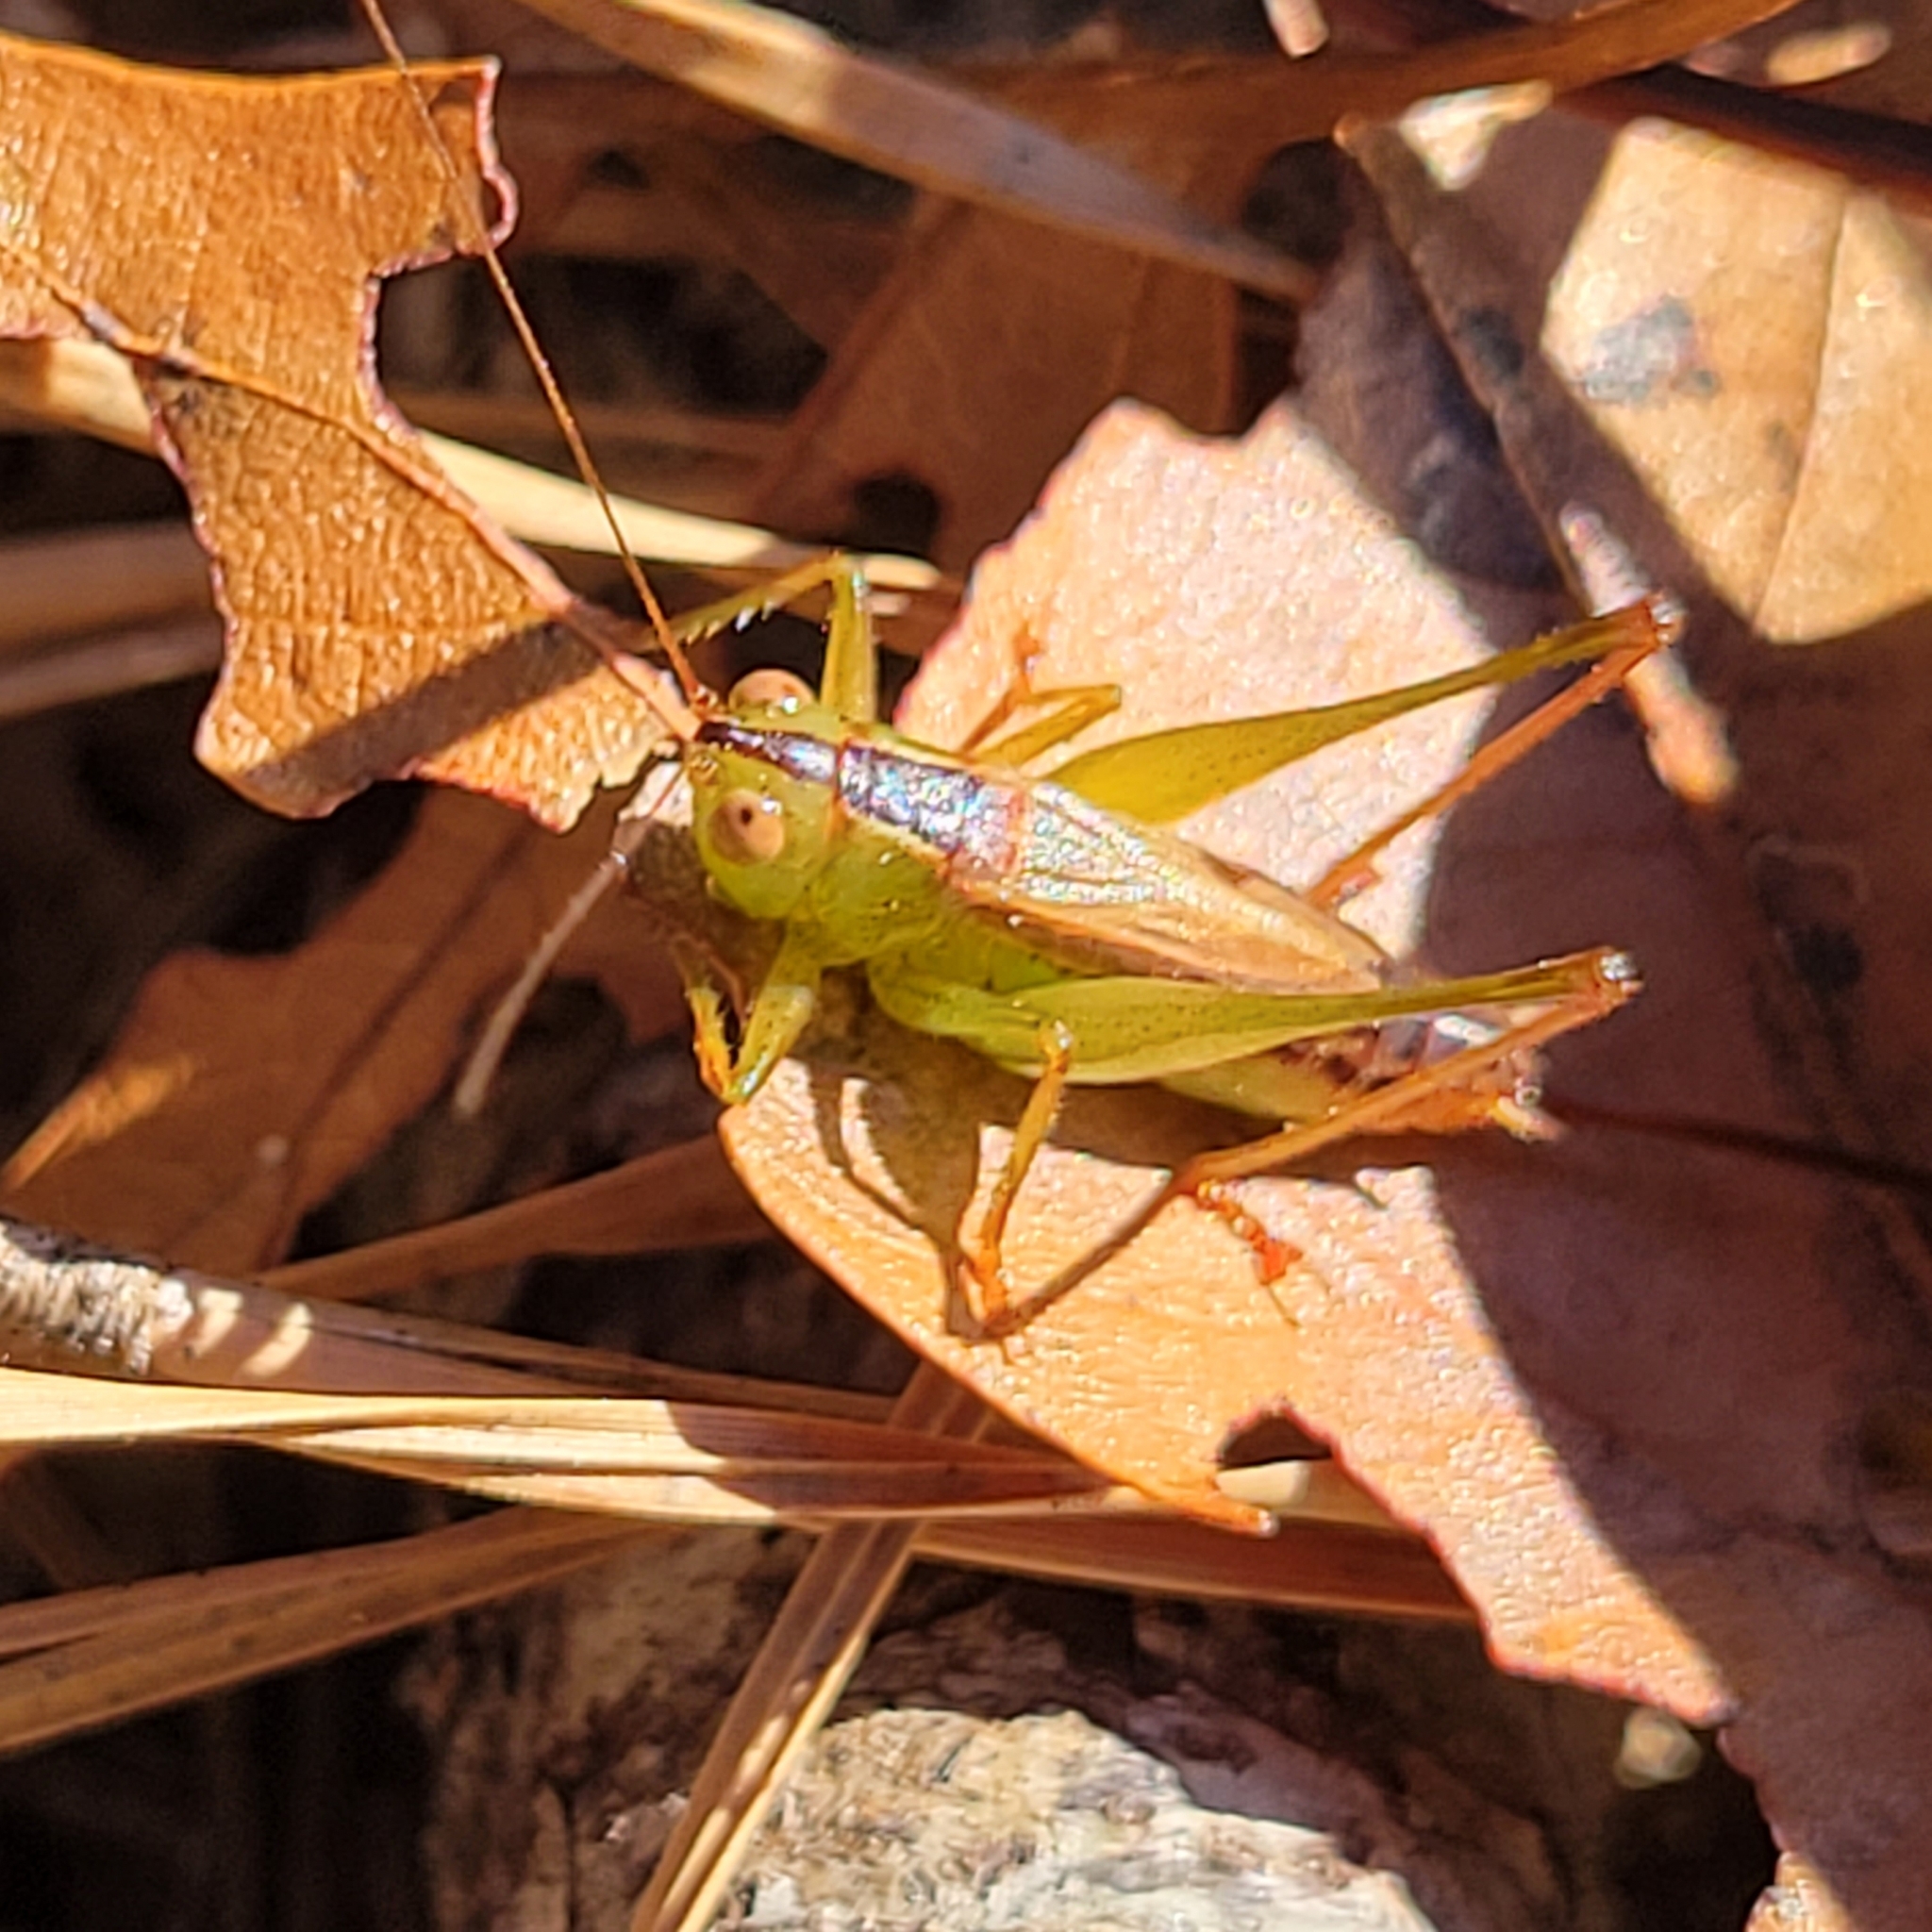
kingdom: Animalia
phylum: Arthropoda
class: Insecta
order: Orthoptera
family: Tettigoniidae
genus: Conocephalus
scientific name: Conocephalus brevipennis
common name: Short-winged meadow katydid
